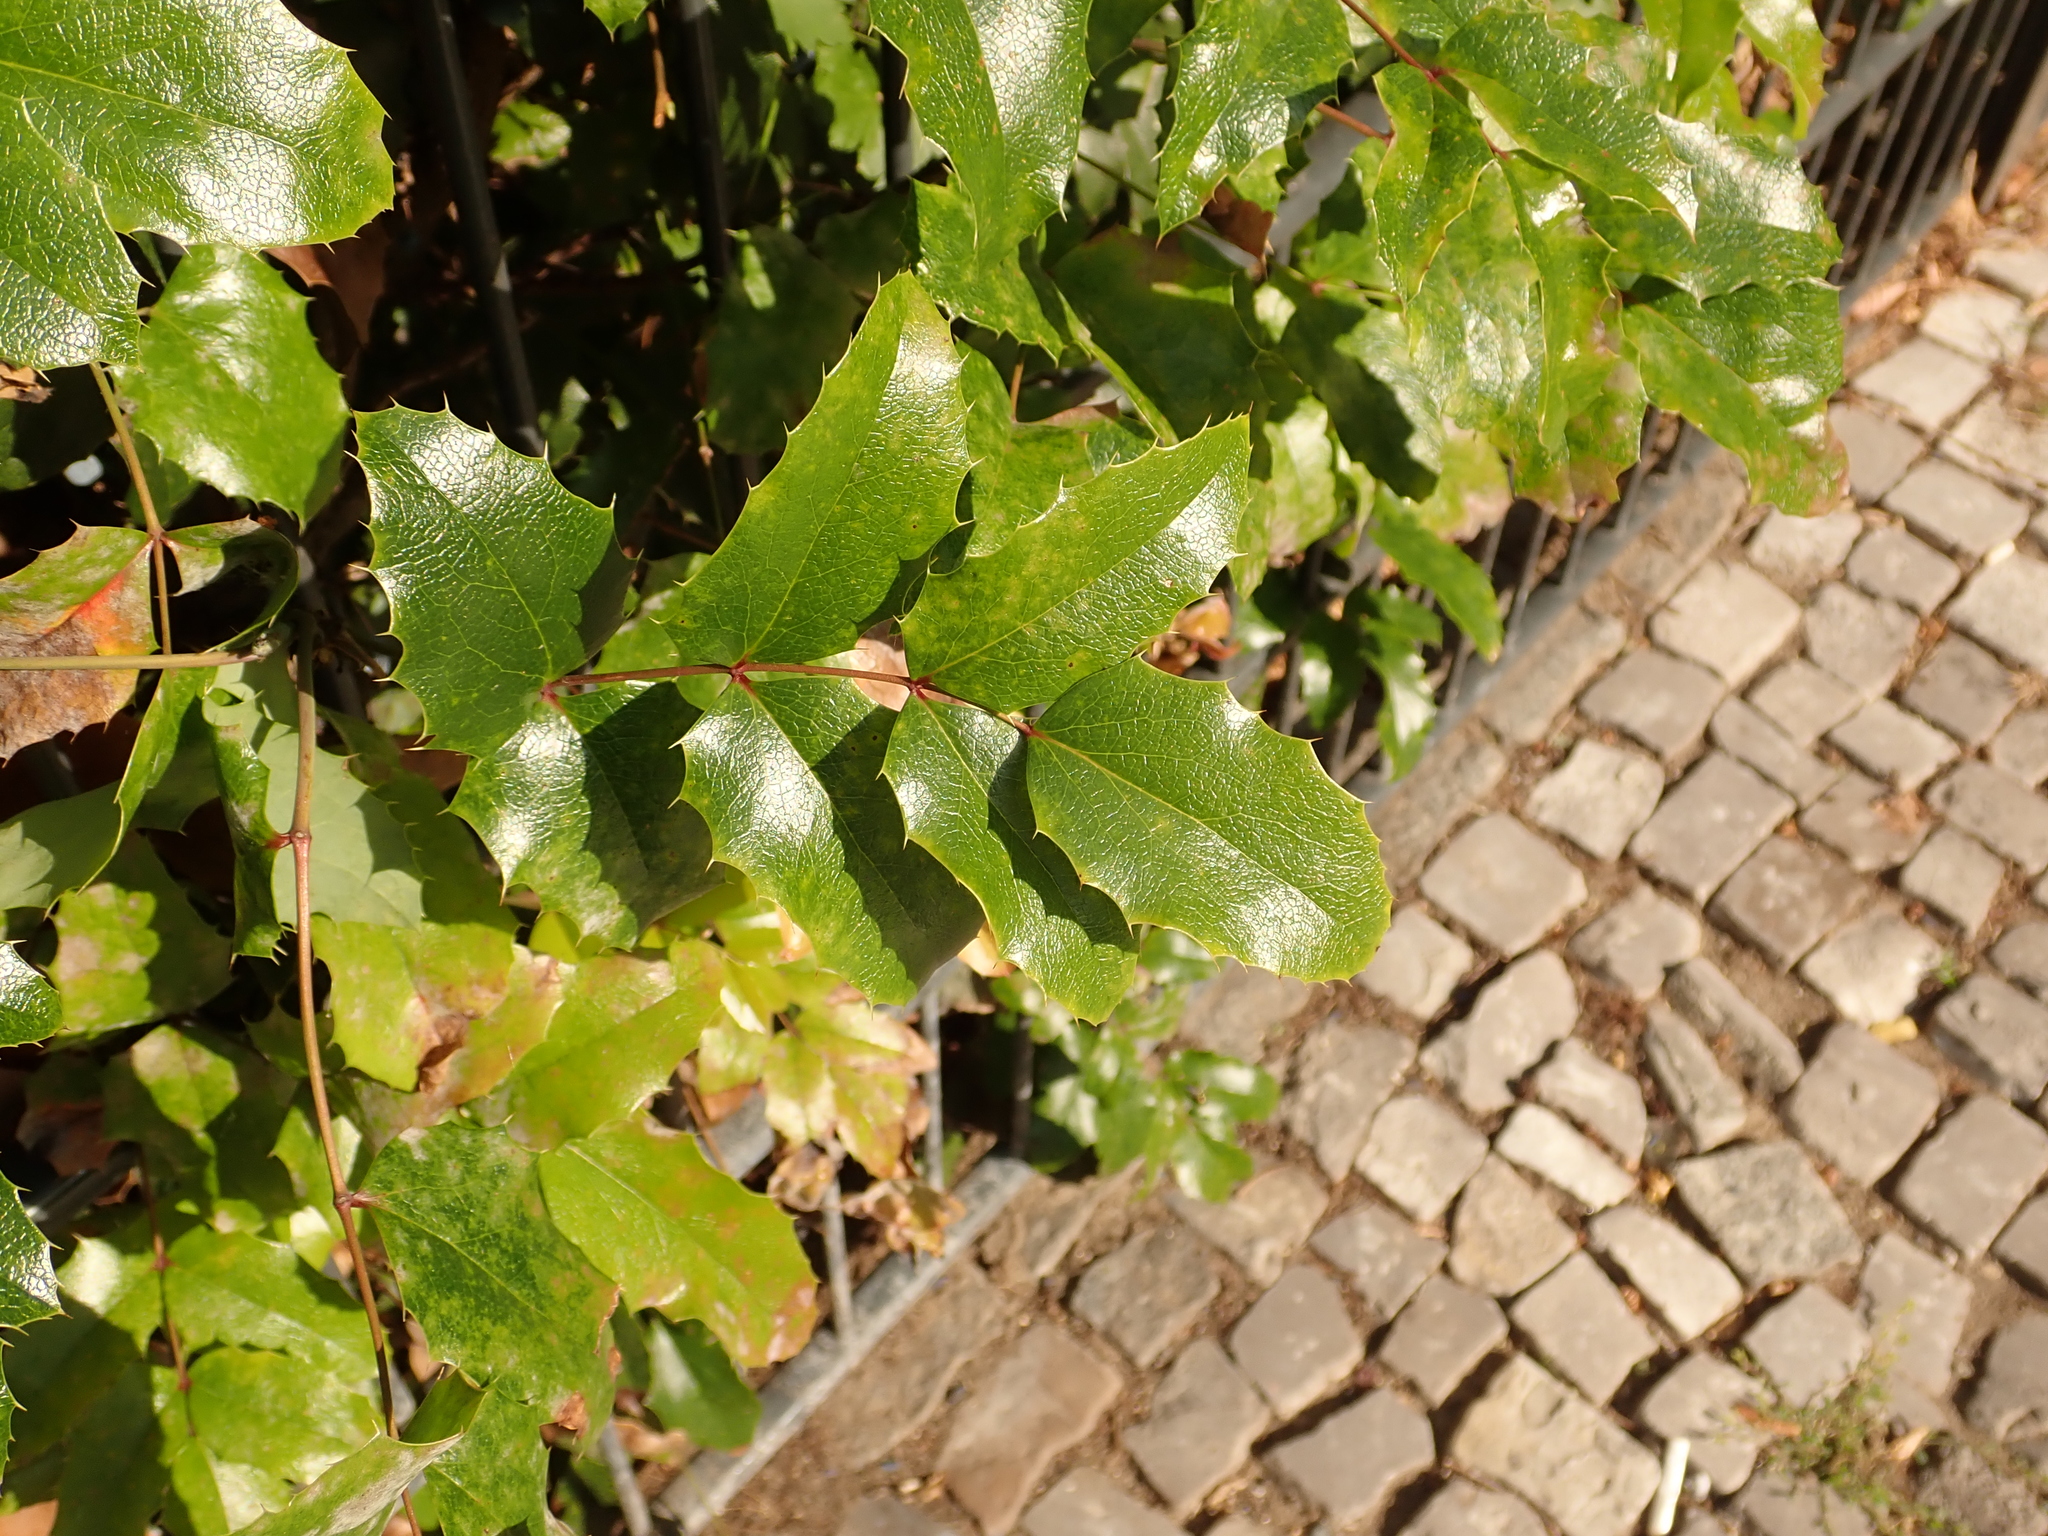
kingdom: Plantae
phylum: Tracheophyta
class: Magnoliopsida
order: Ranunculales
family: Berberidaceae
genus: Mahonia
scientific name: Mahonia aquifolium
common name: Oregon-grape
